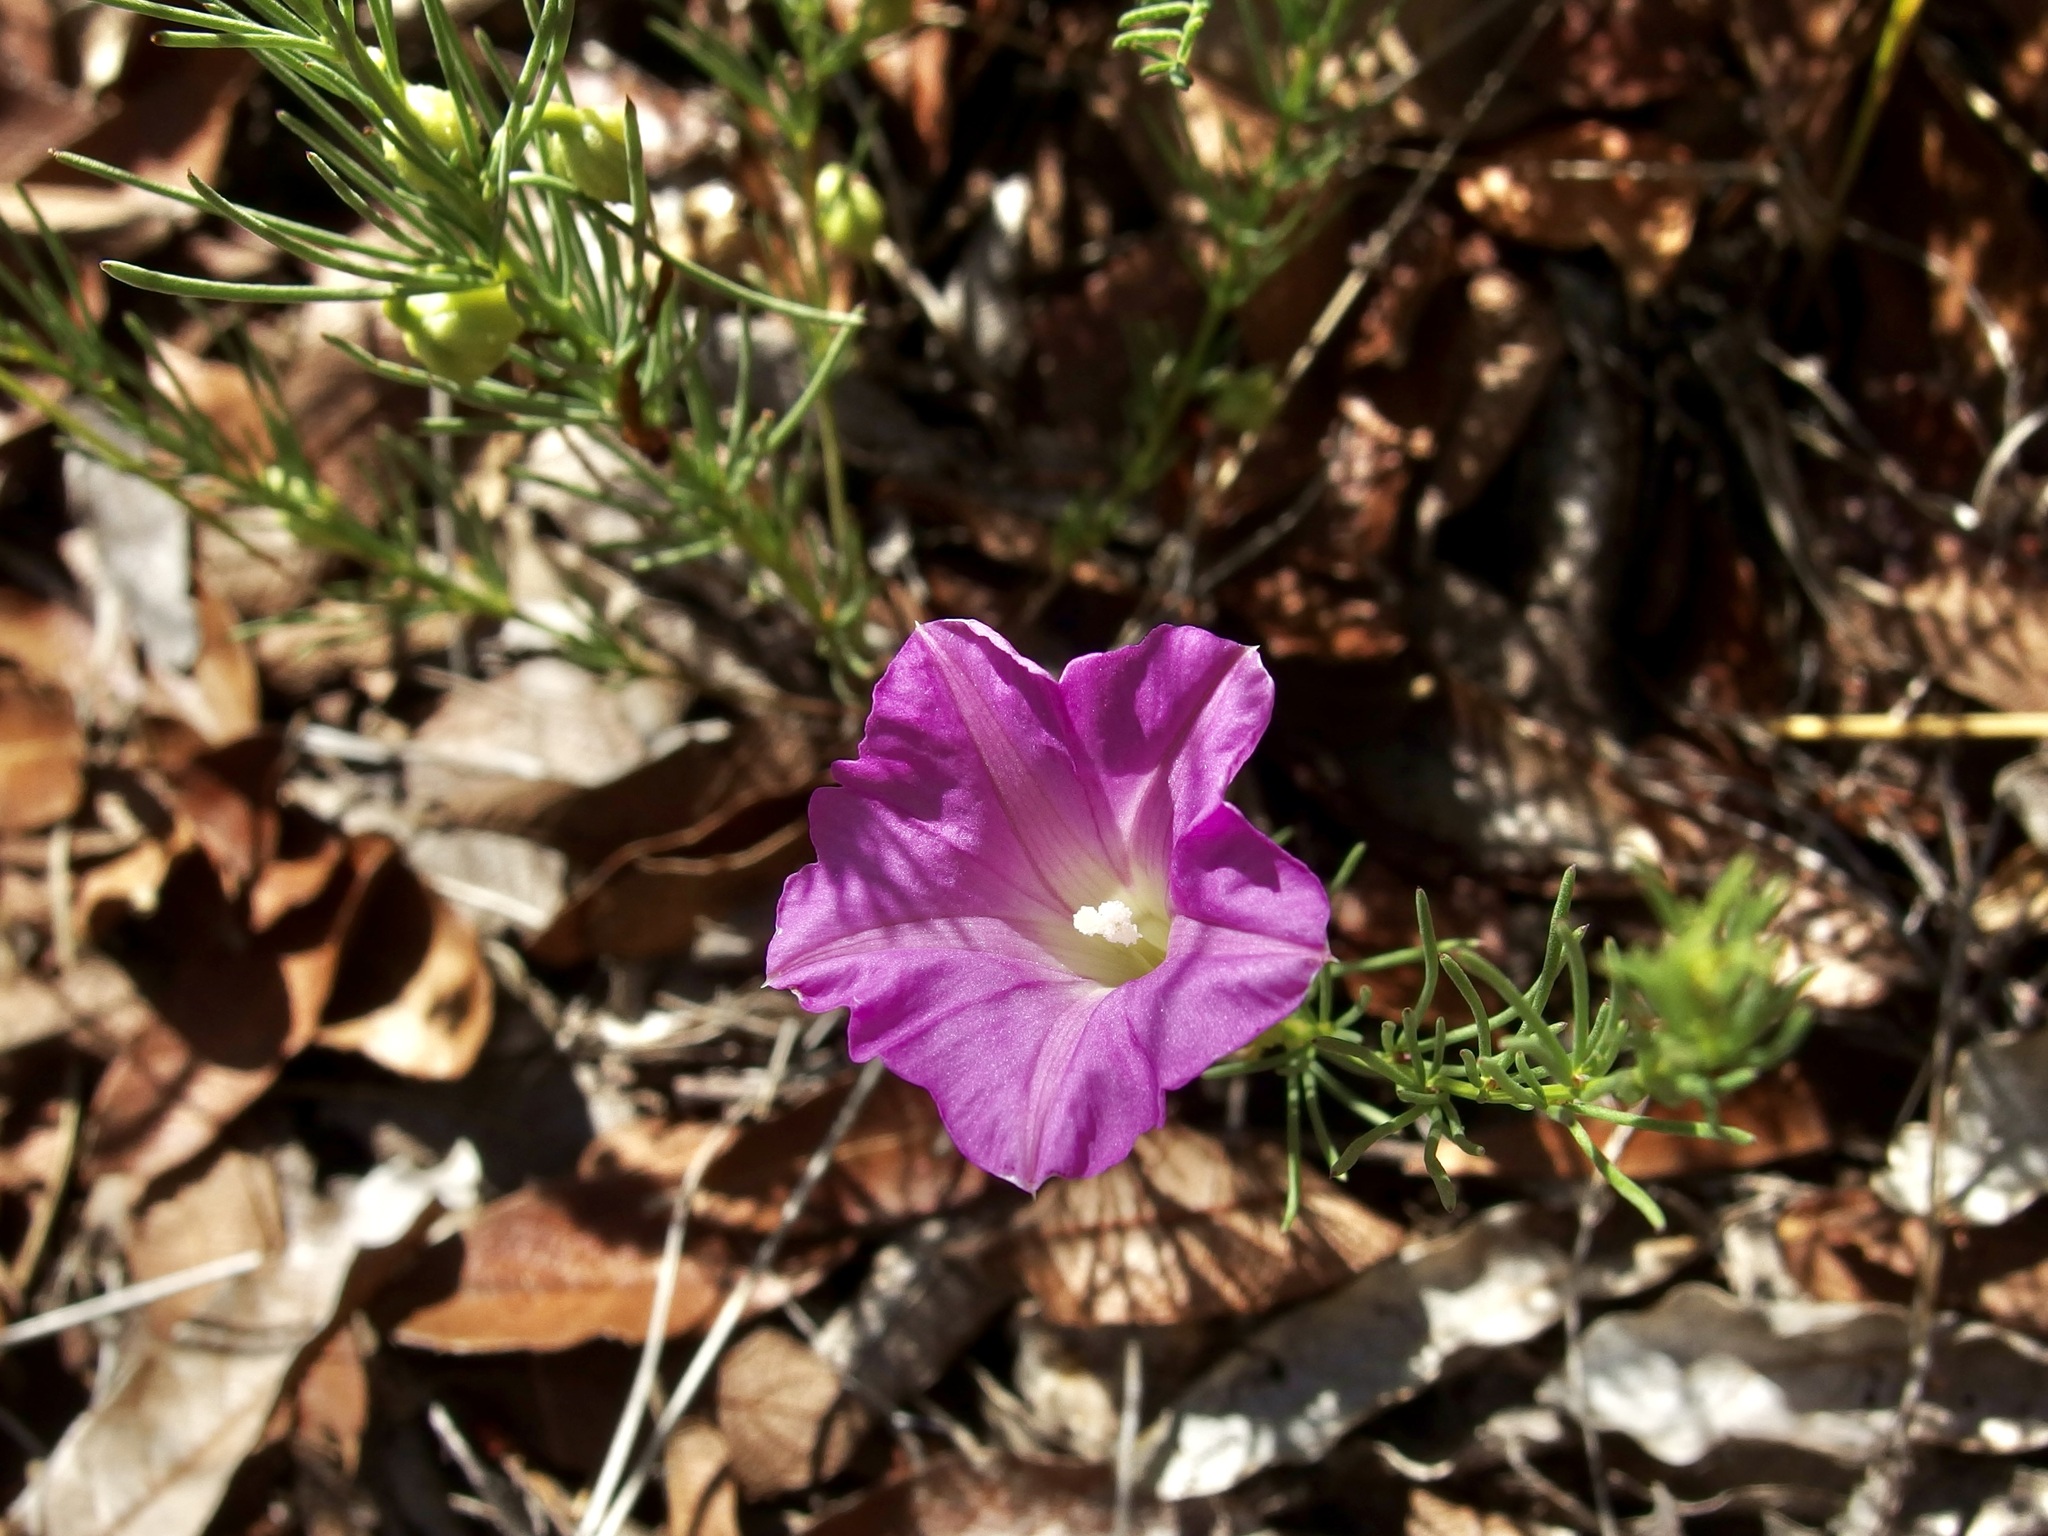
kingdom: Plantae
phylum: Tracheophyta
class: Magnoliopsida
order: Solanales
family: Convolvulaceae
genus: Ipomoea
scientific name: Ipomoea capillacea
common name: Purple morning-glory
